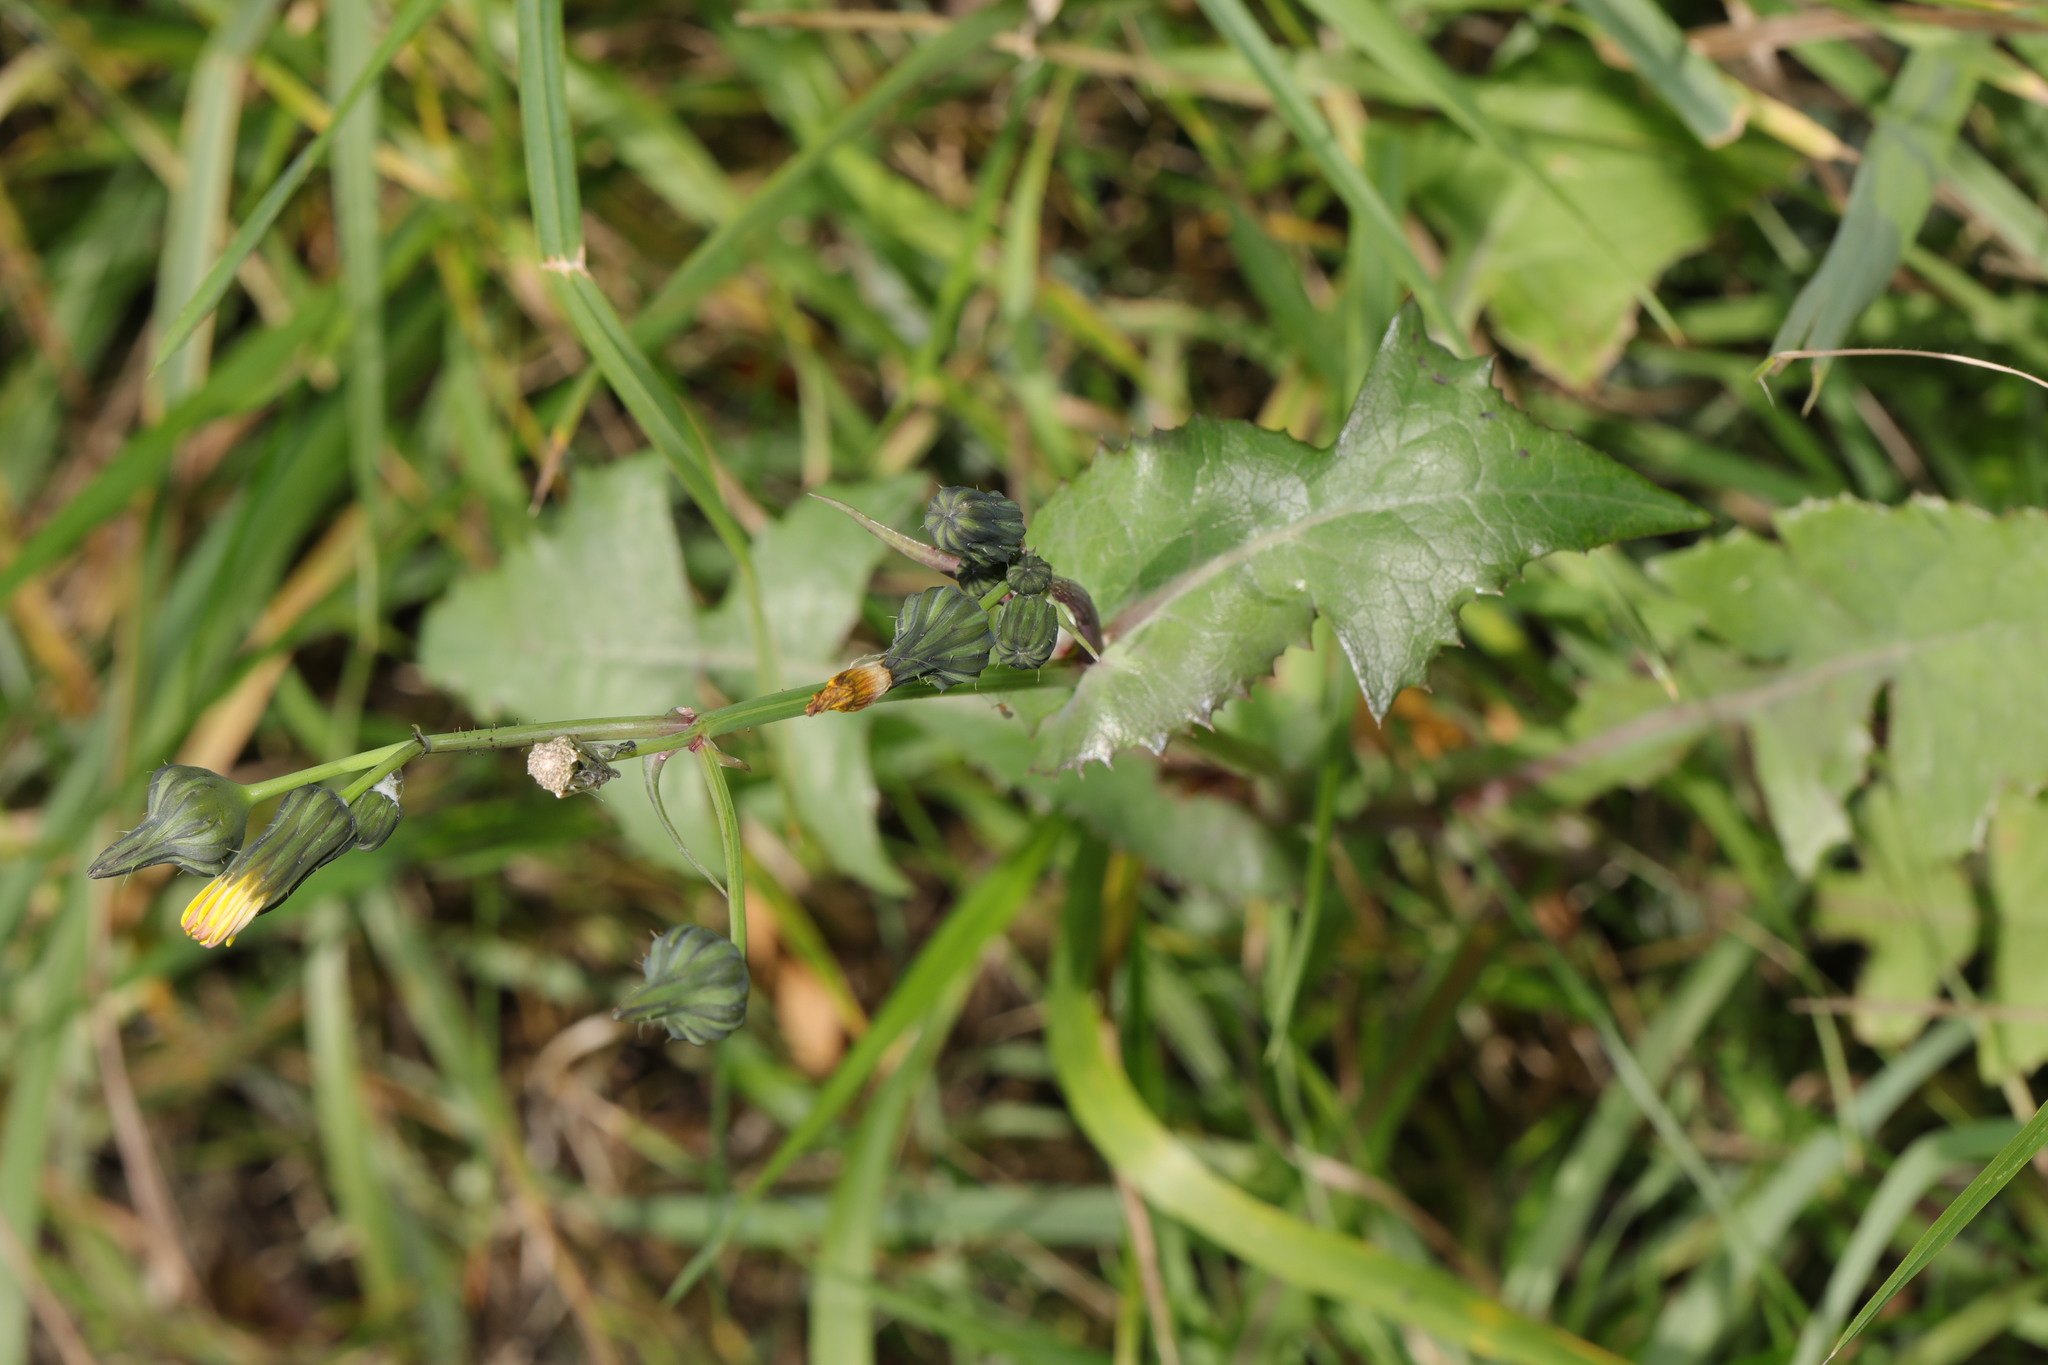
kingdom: Plantae
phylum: Tracheophyta
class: Magnoliopsida
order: Asterales
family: Asteraceae
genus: Sonchus
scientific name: Sonchus oleraceus
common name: Common sowthistle
